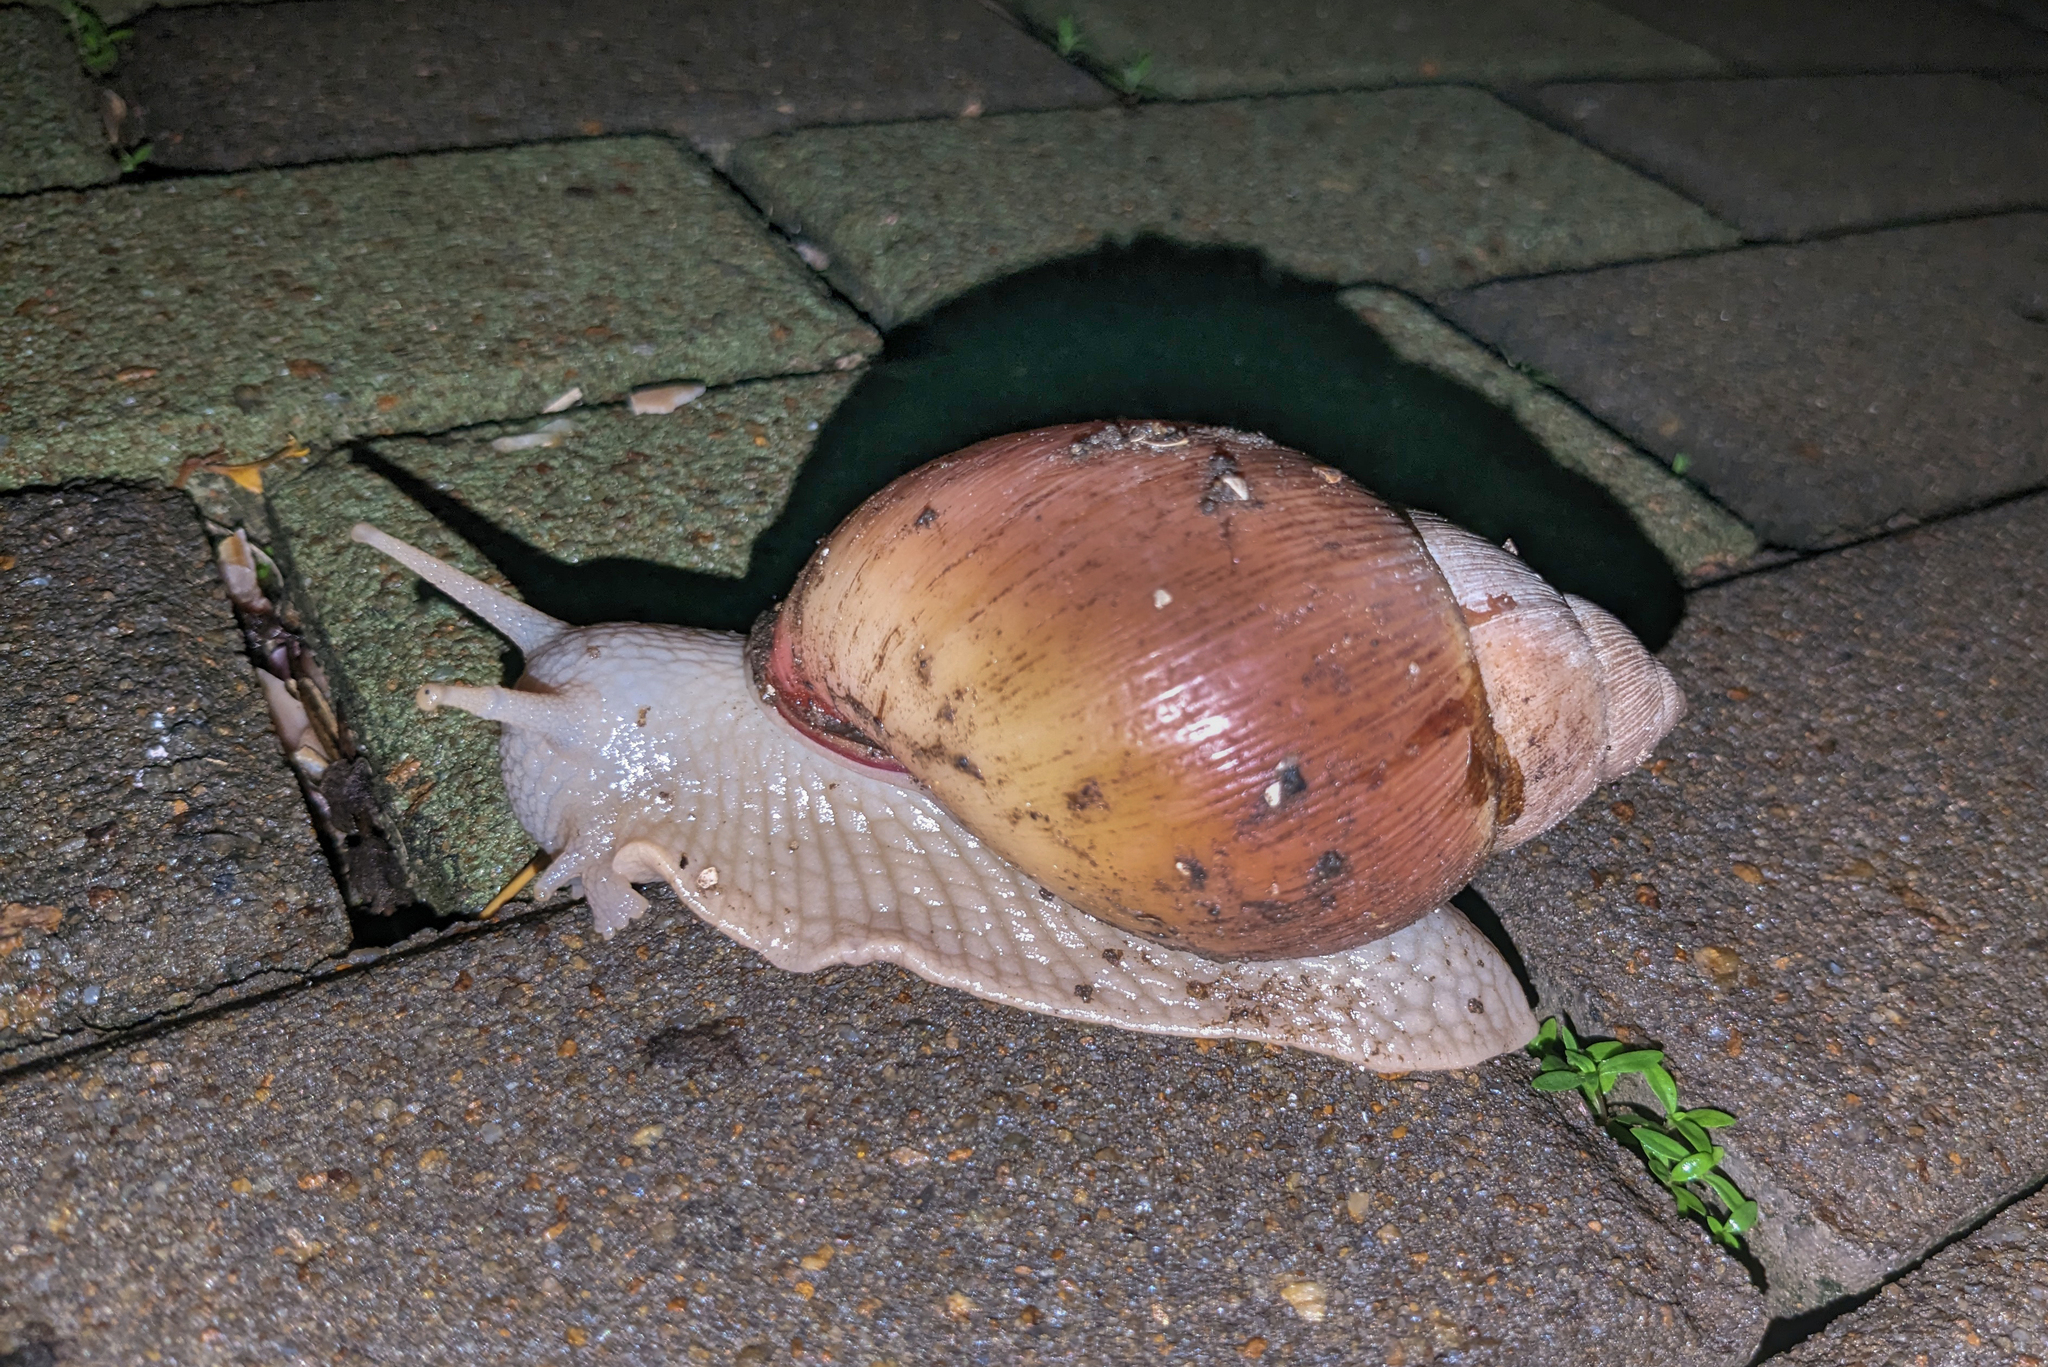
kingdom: Animalia
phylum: Mollusca
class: Gastropoda
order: Stylommatophora
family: Strophocheilidae
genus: Megalobulimus
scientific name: Megalobulimus oblongus
